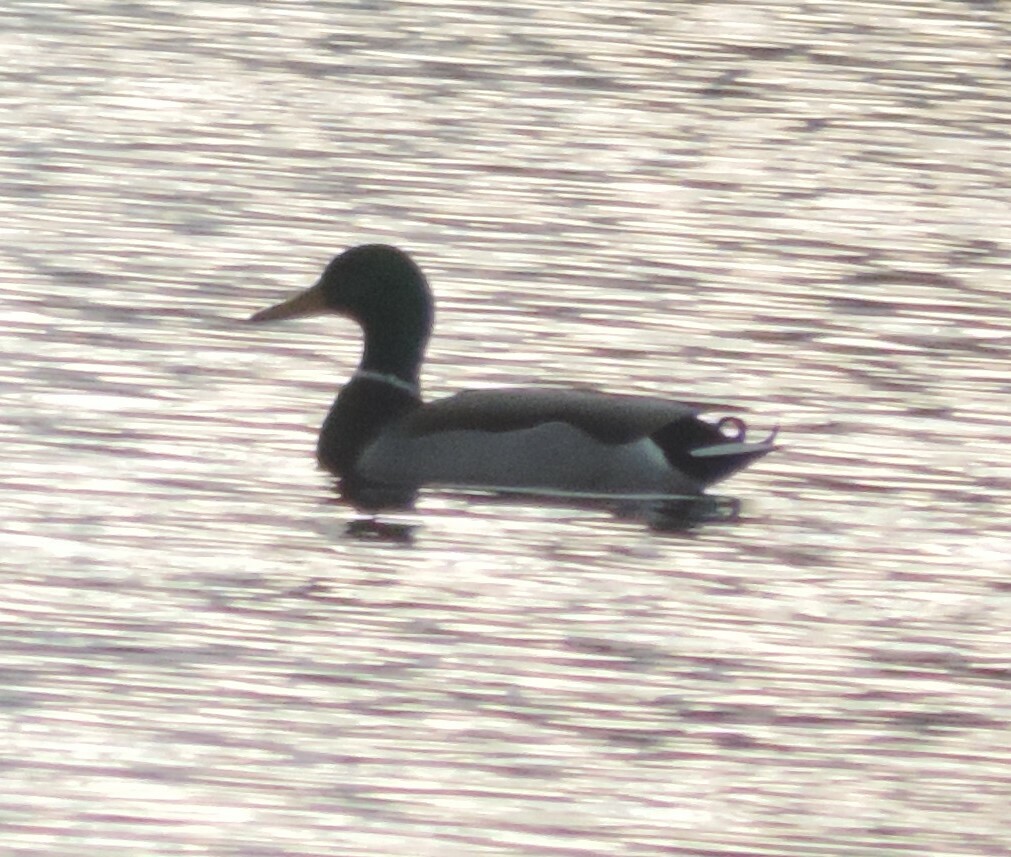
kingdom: Animalia
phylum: Chordata
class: Aves
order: Anseriformes
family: Anatidae
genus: Anas
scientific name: Anas platyrhynchos
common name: Mallard
